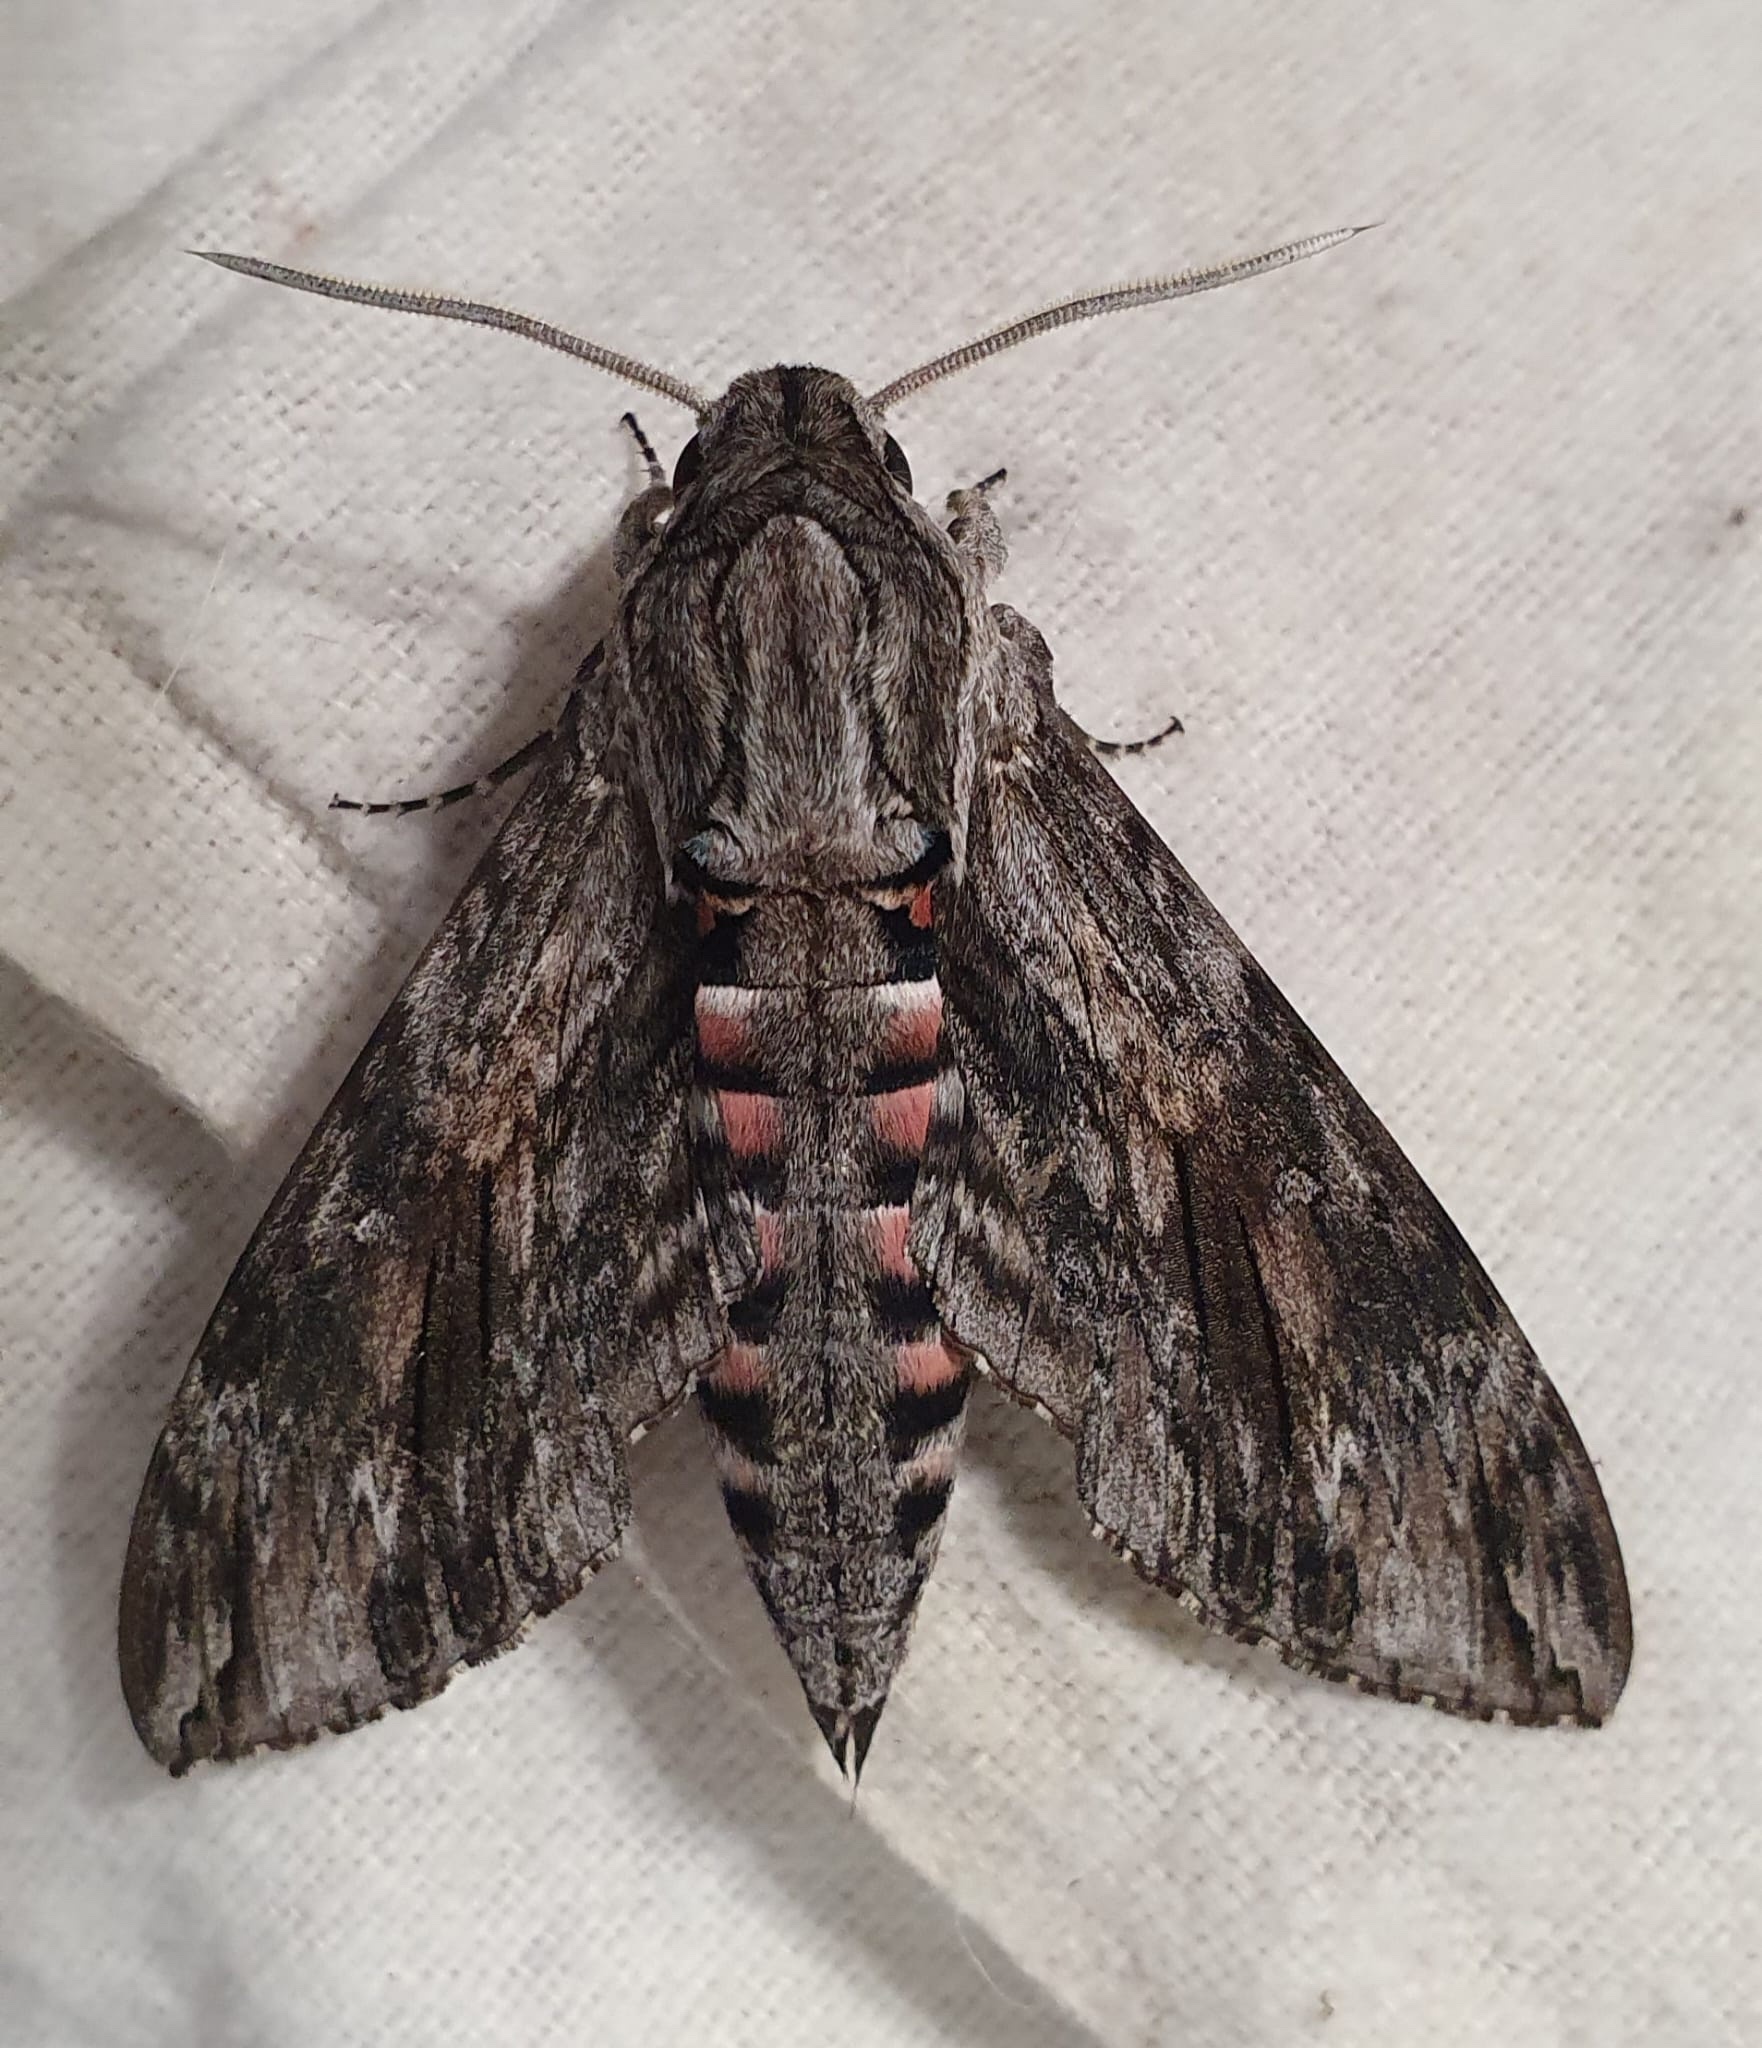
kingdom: Animalia
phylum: Arthropoda
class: Insecta
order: Lepidoptera
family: Sphingidae
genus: Agrius
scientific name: Agrius convolvuli
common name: Convolvulus hawkmoth
